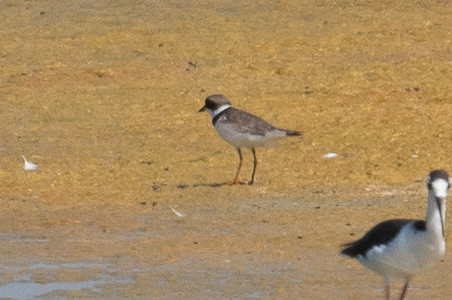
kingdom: Animalia
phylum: Chordata
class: Aves
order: Charadriiformes
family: Charadriidae
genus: Charadrius
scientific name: Charadrius semipalmatus
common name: Semipalmated plover
